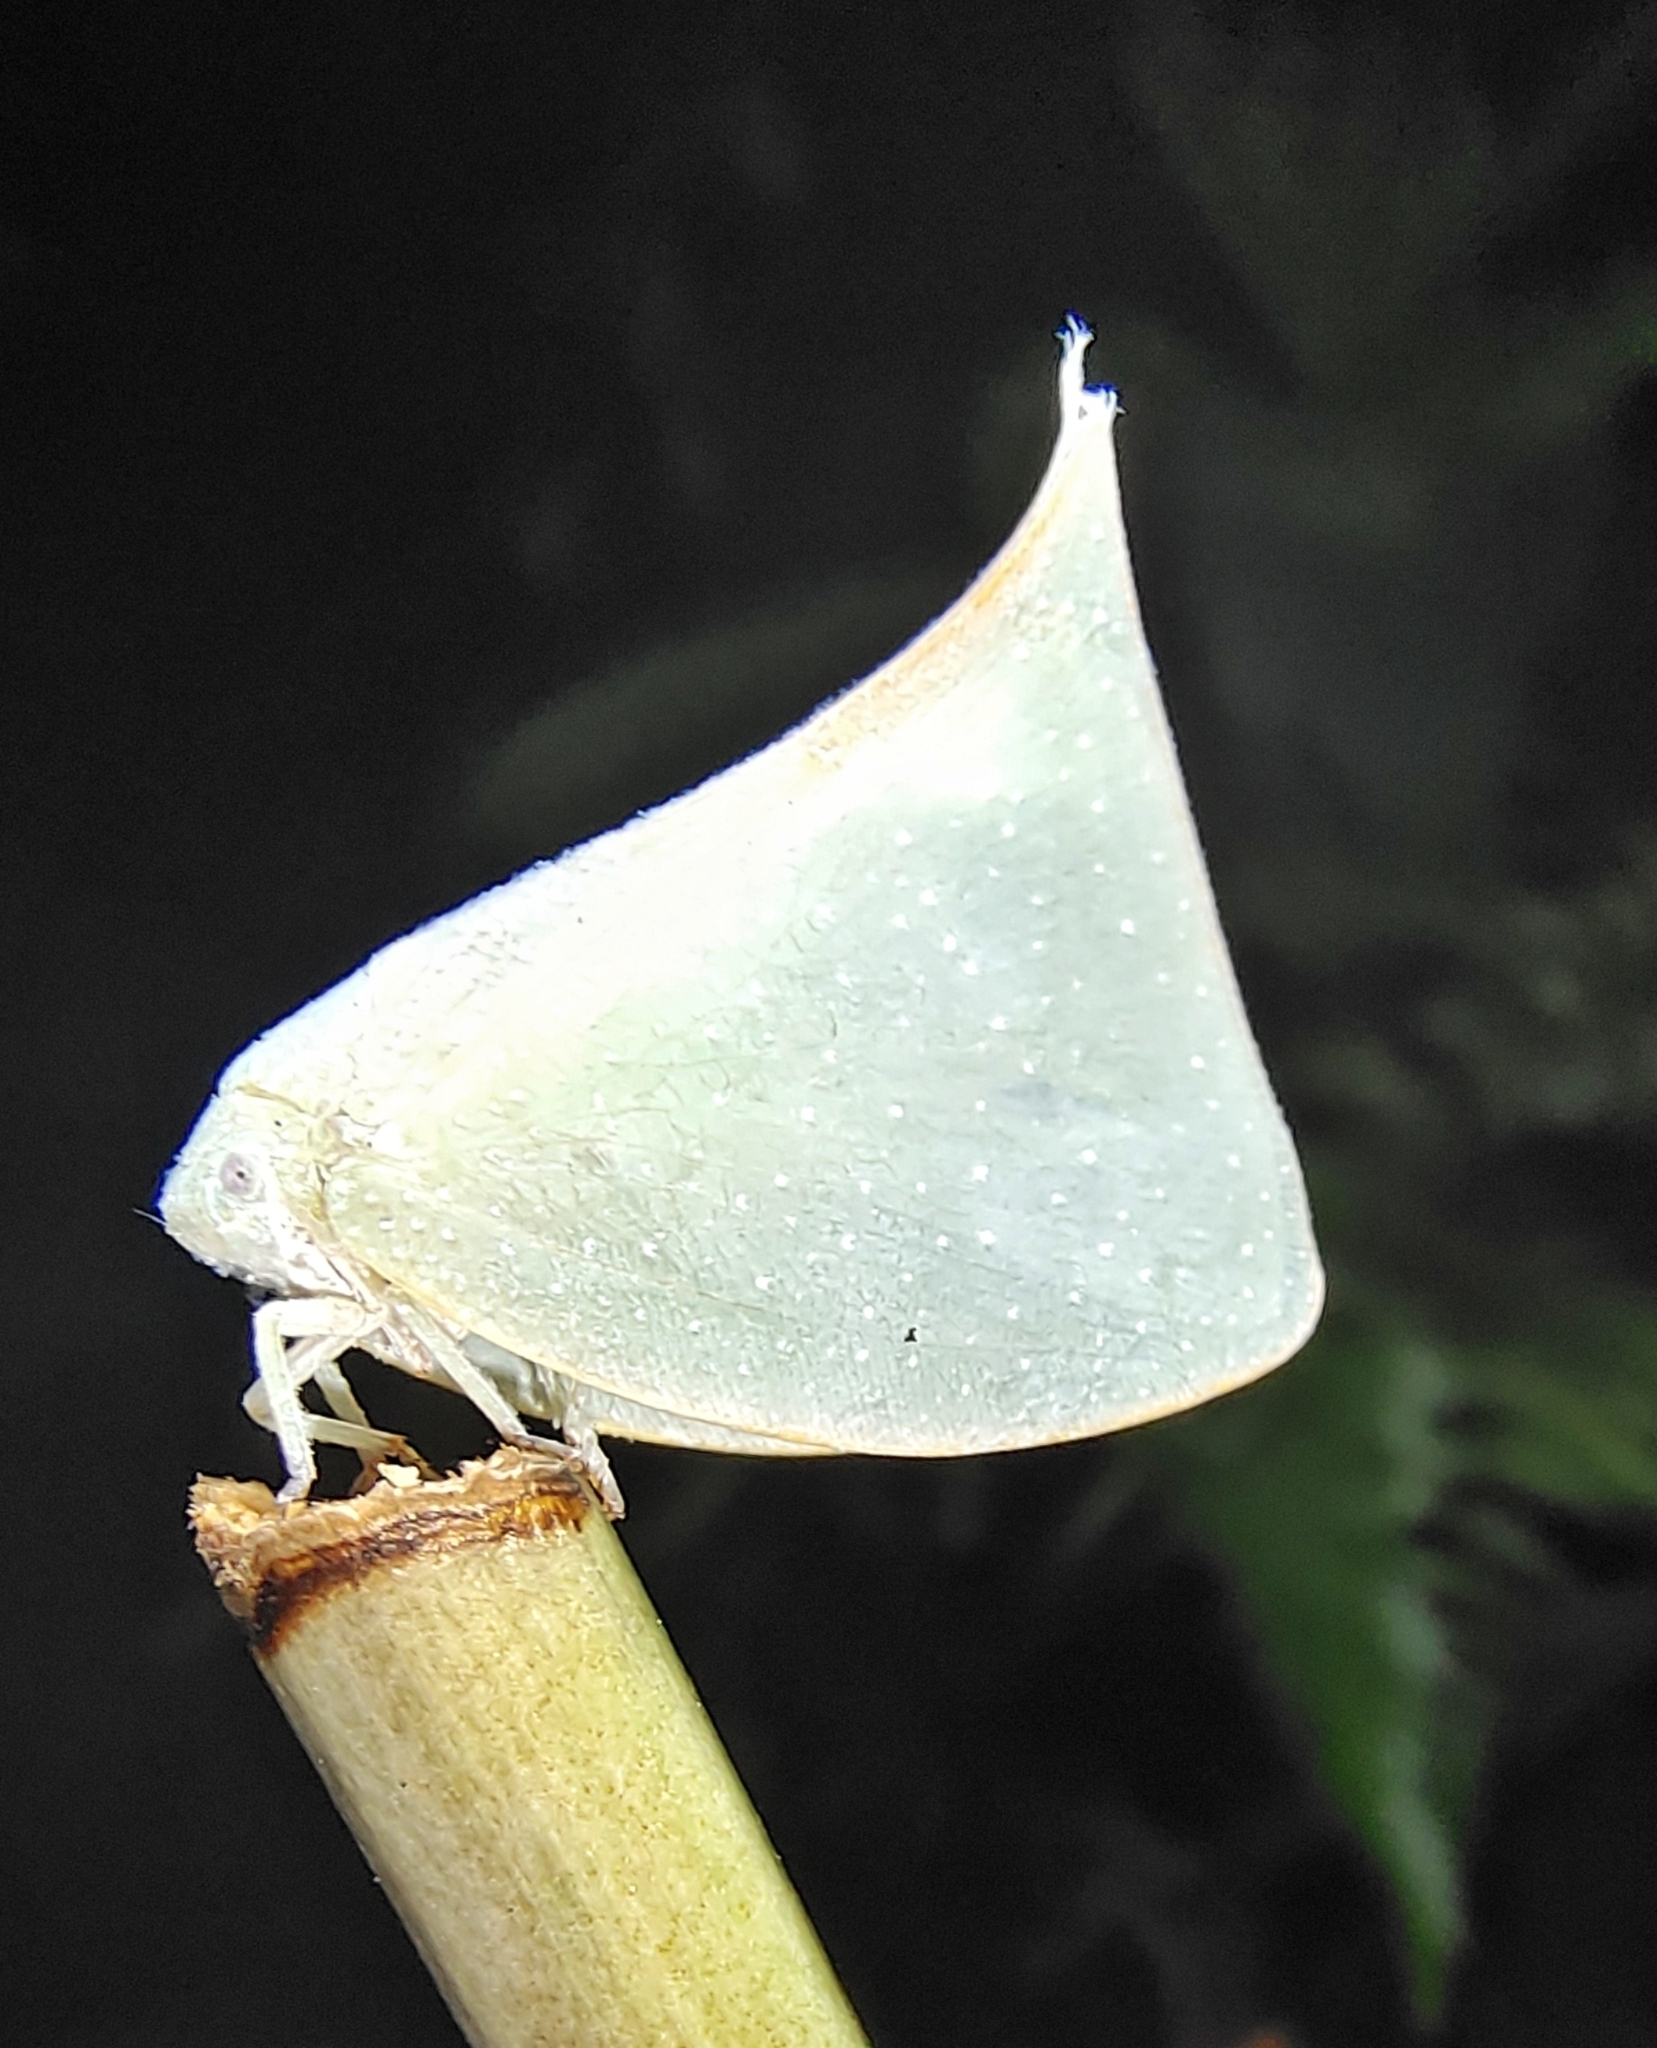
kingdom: Animalia
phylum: Arthropoda
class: Insecta
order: Hemiptera
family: Flatidae
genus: Colobesthes
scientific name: Colobesthes falcata
